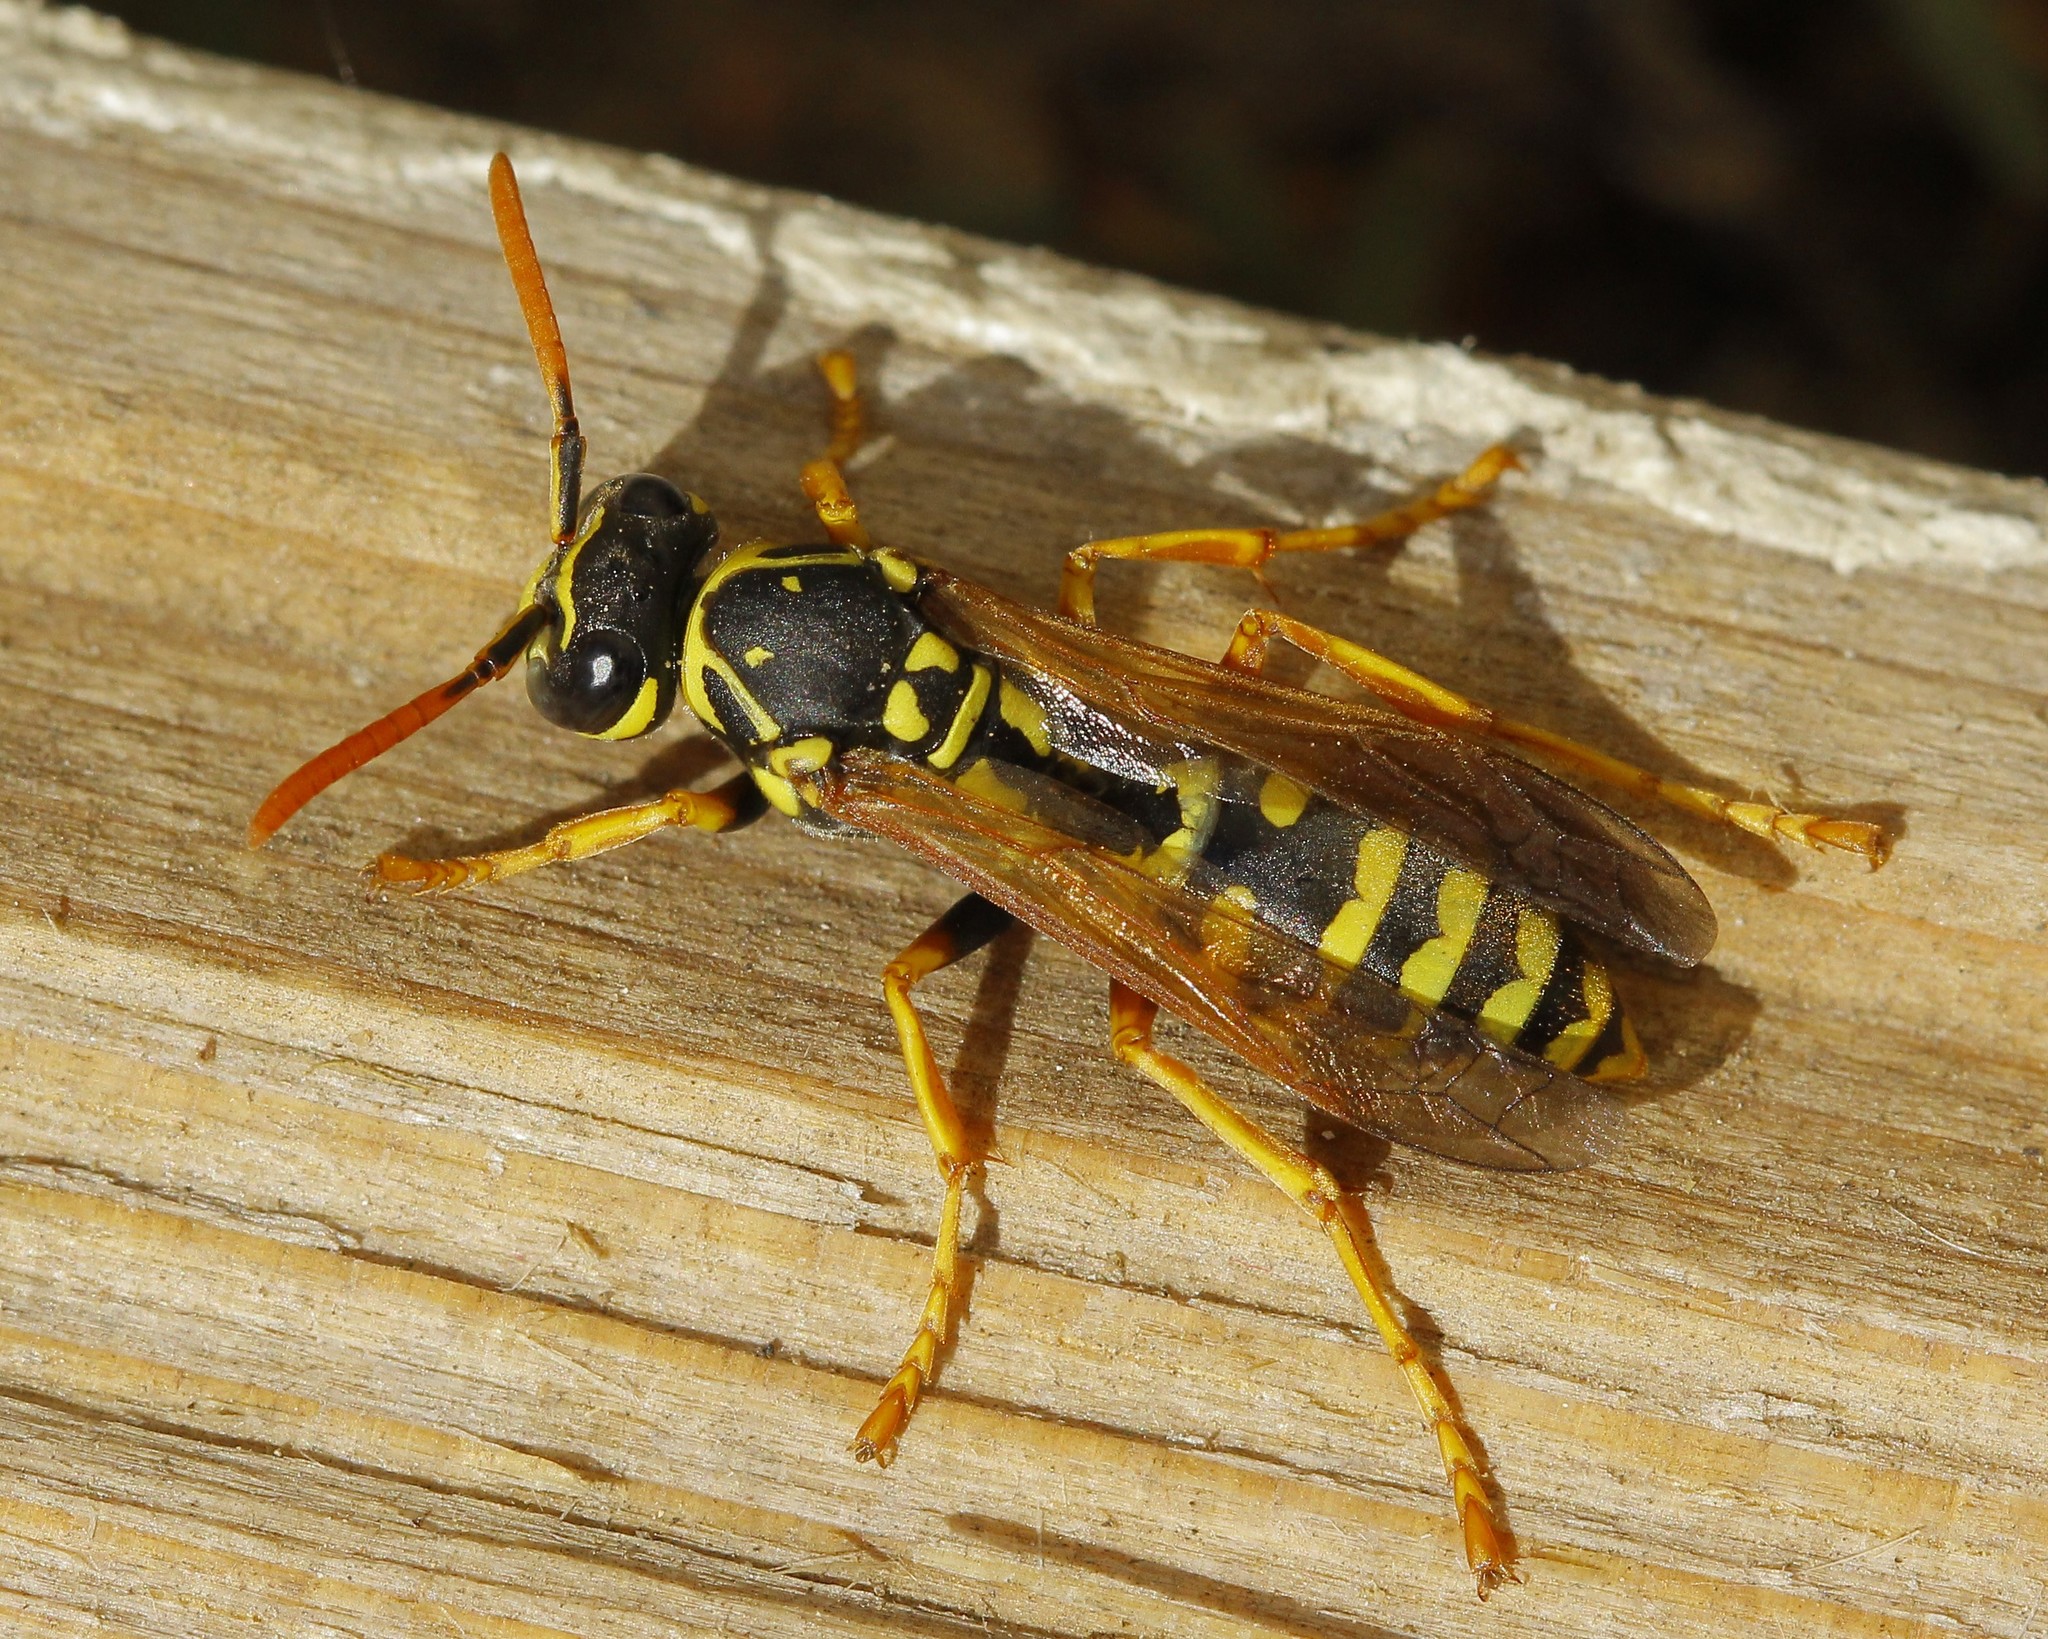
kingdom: Animalia
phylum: Arthropoda
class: Insecta
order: Hymenoptera
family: Eumenidae
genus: Polistes
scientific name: Polistes dominula
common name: Paper wasp
